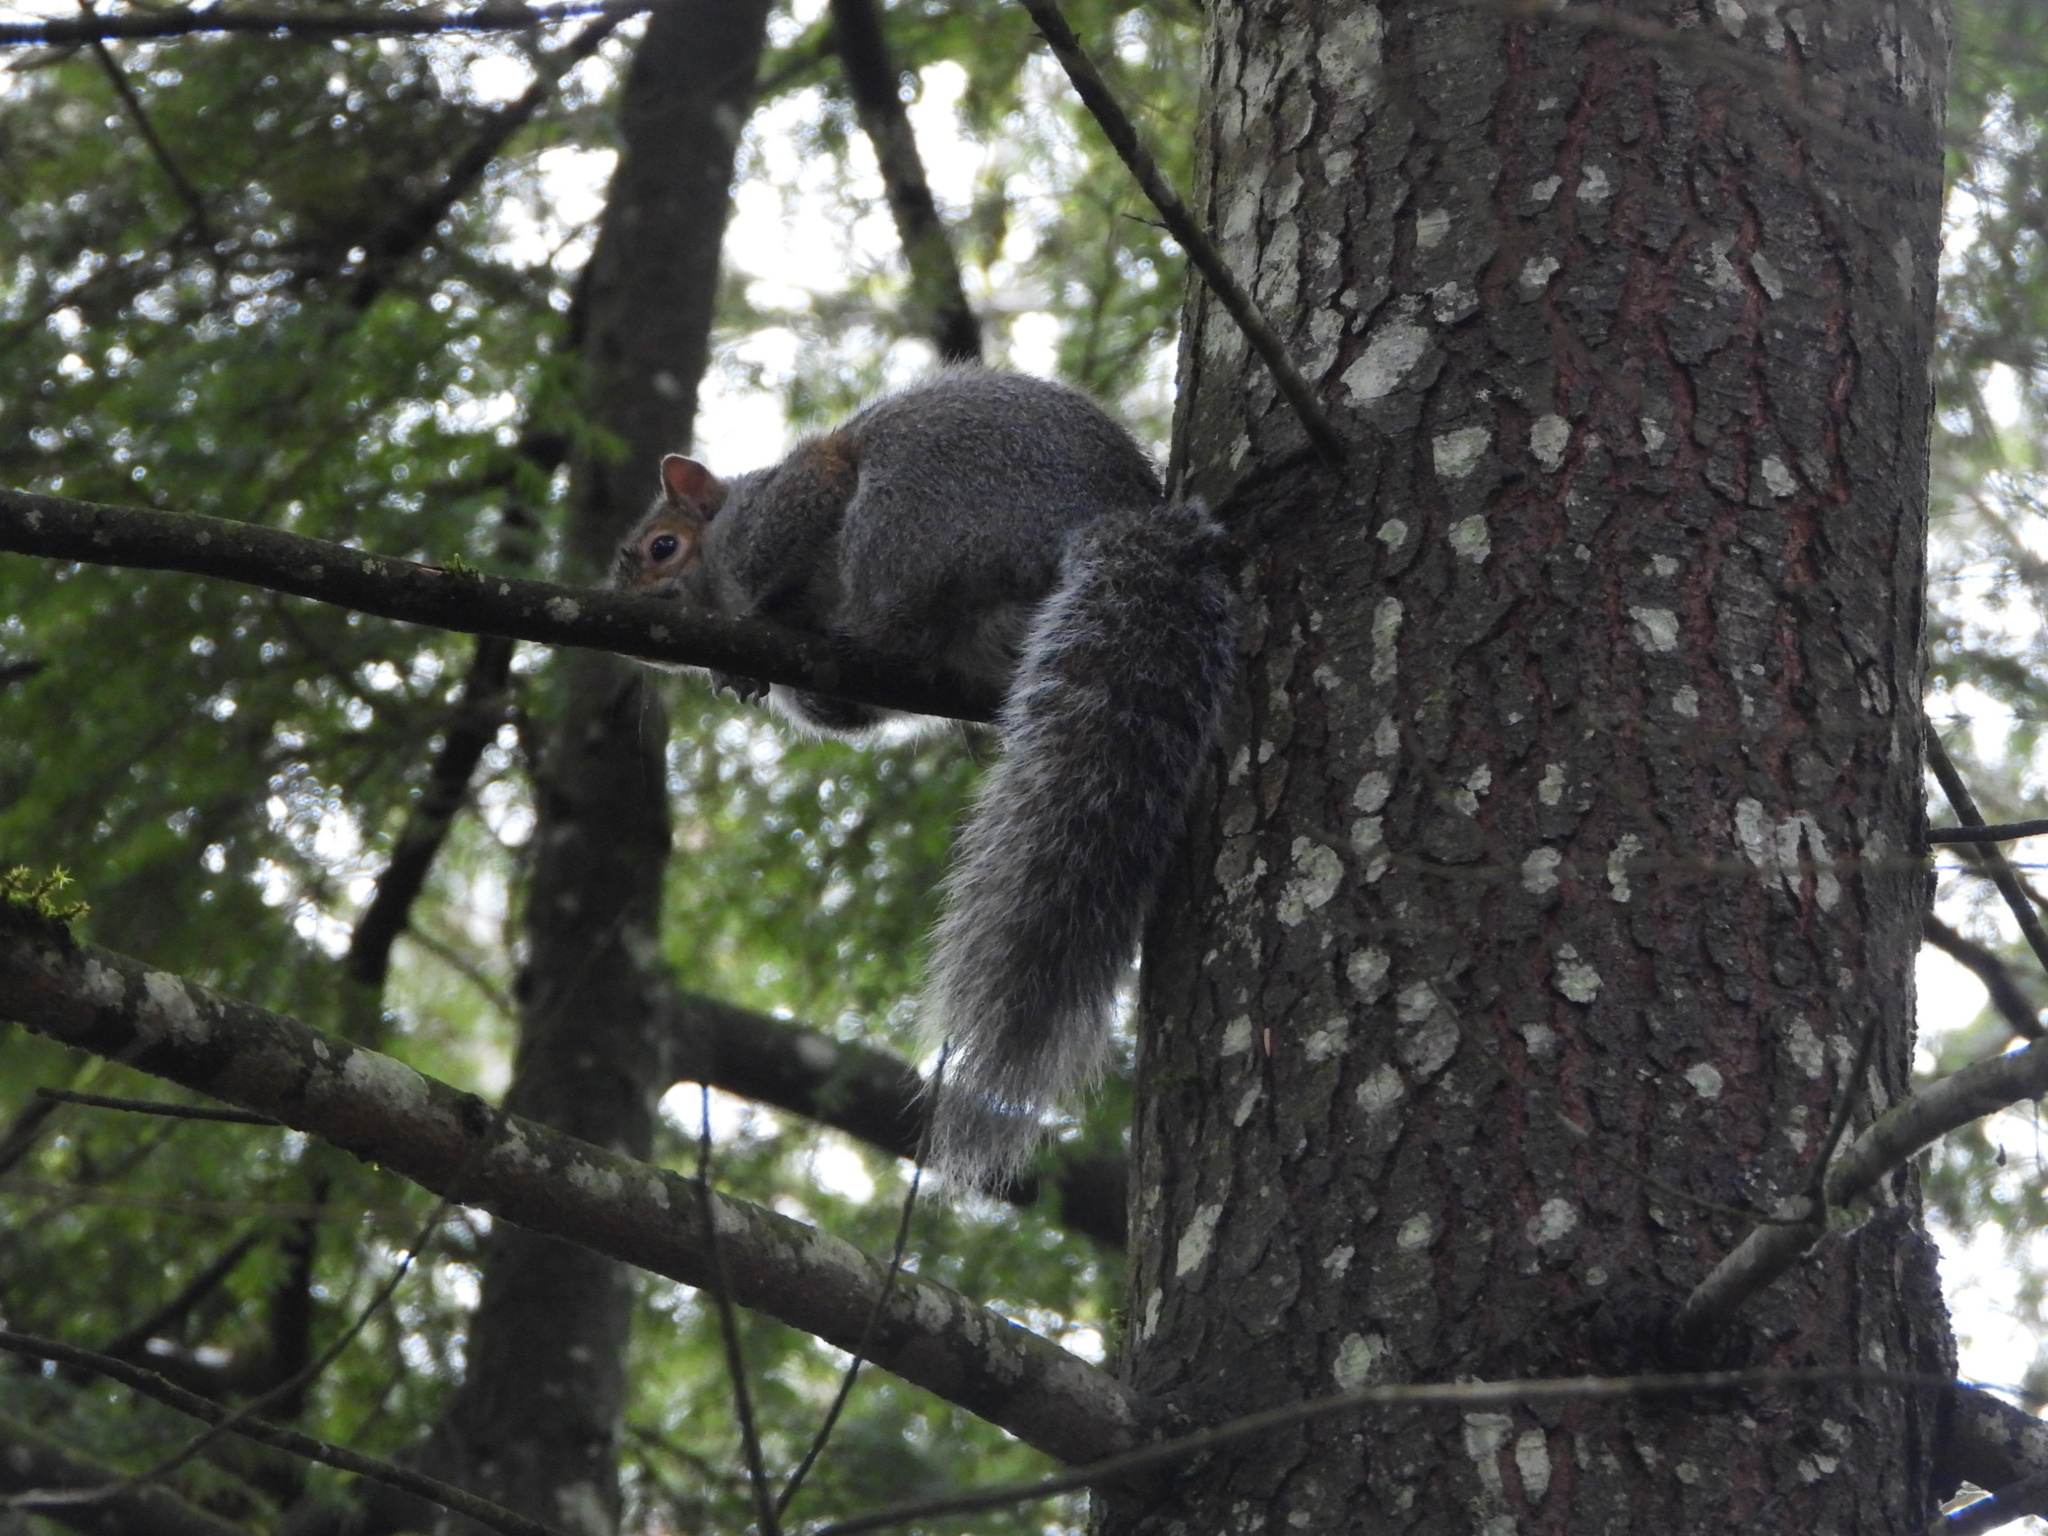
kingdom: Animalia
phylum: Chordata
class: Mammalia
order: Rodentia
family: Sciuridae
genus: Sciurus
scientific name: Sciurus carolinensis
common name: Eastern gray squirrel
